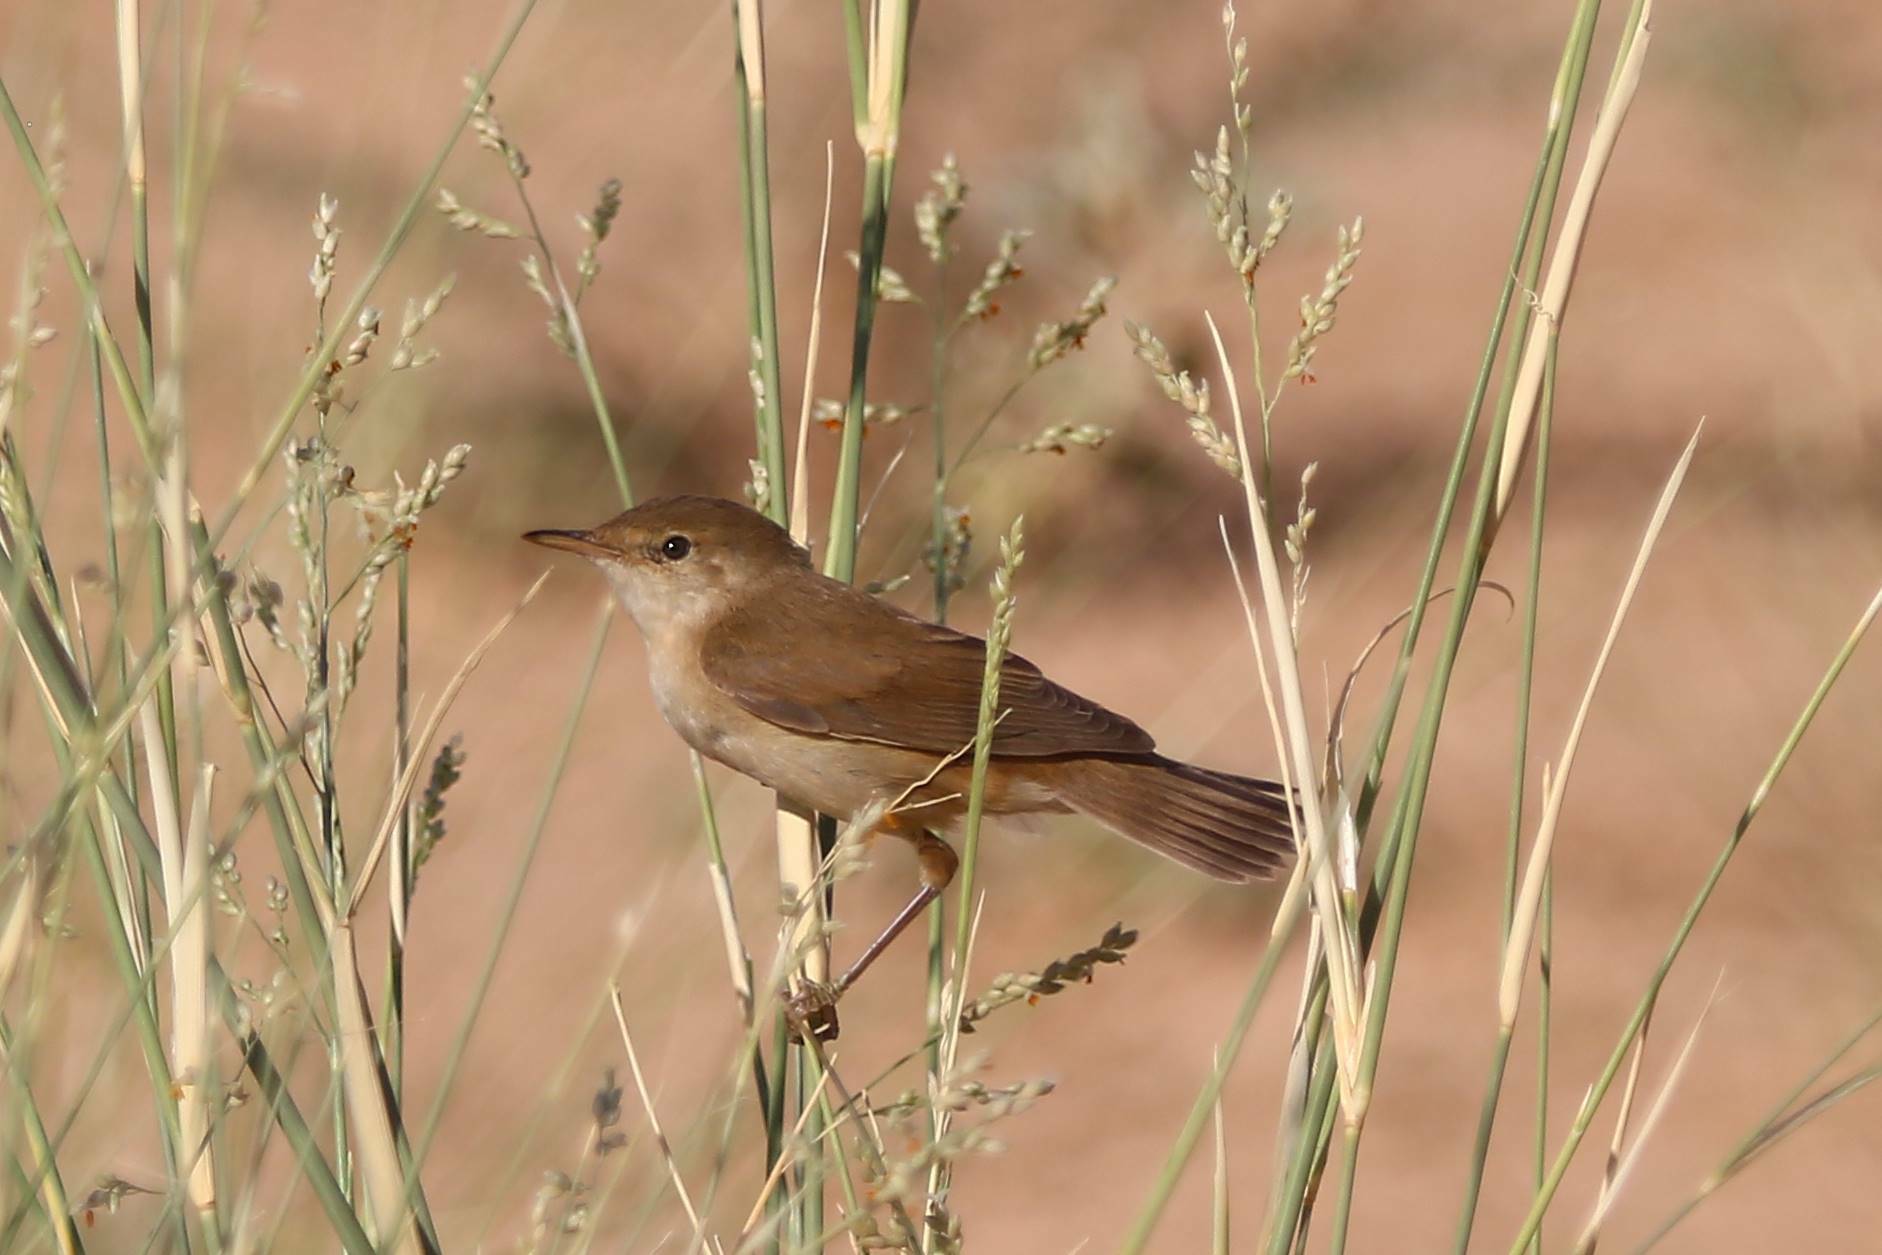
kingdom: Animalia
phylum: Chordata
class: Aves
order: Passeriformes
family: Acrocephalidae
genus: Acrocephalus
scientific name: Acrocephalus baeticatus
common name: African reed warbler
